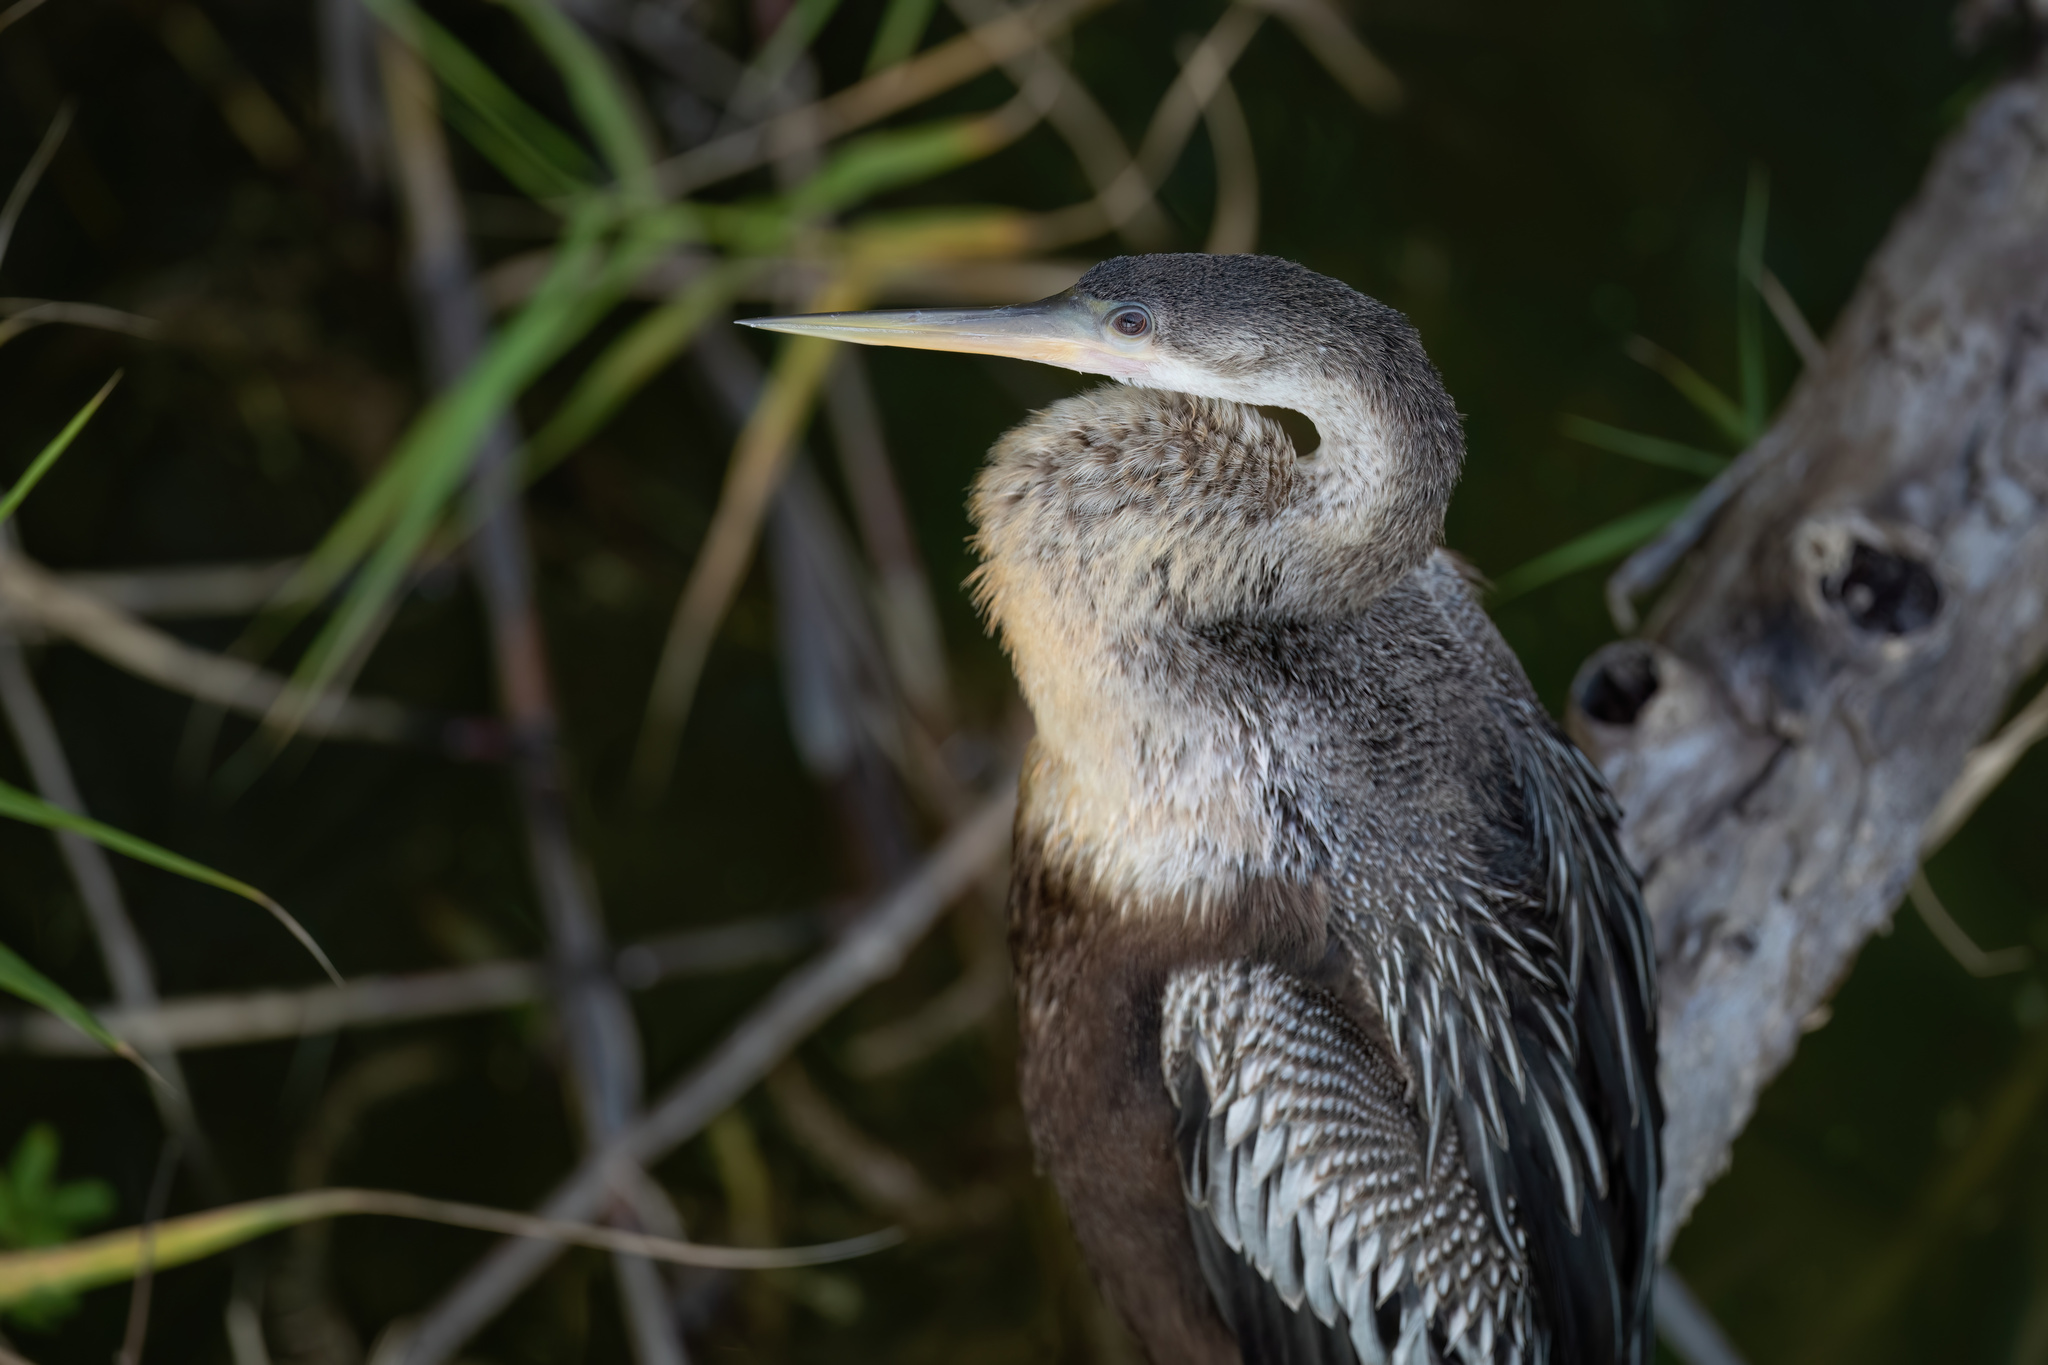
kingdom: Animalia
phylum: Chordata
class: Aves
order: Suliformes
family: Anhingidae
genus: Anhinga
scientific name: Anhinga anhinga
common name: Anhinga
